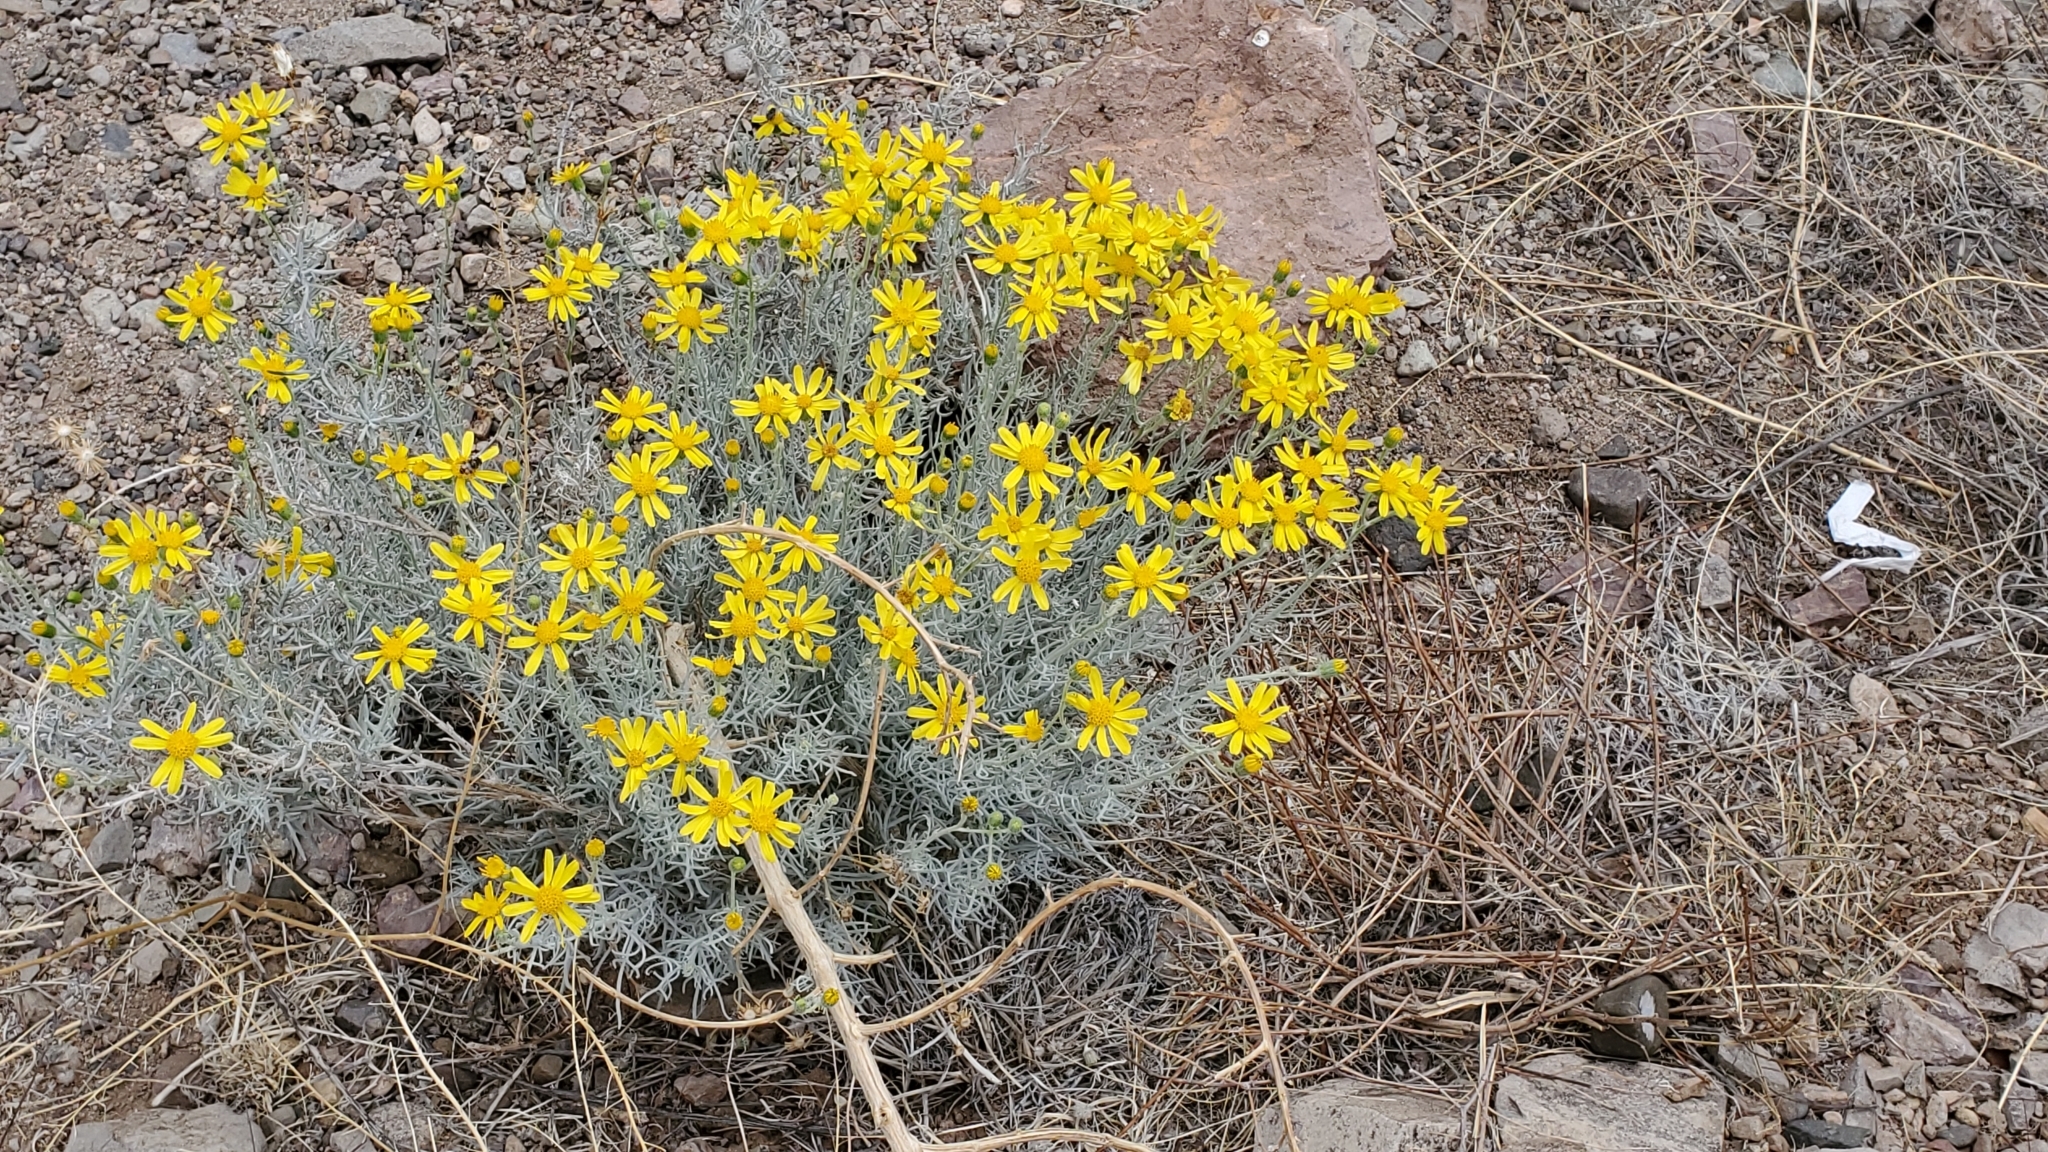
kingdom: Plantae
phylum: Tracheophyta
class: Magnoliopsida
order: Asterales
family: Asteraceae
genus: Senecio
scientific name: Senecio flaccidus
